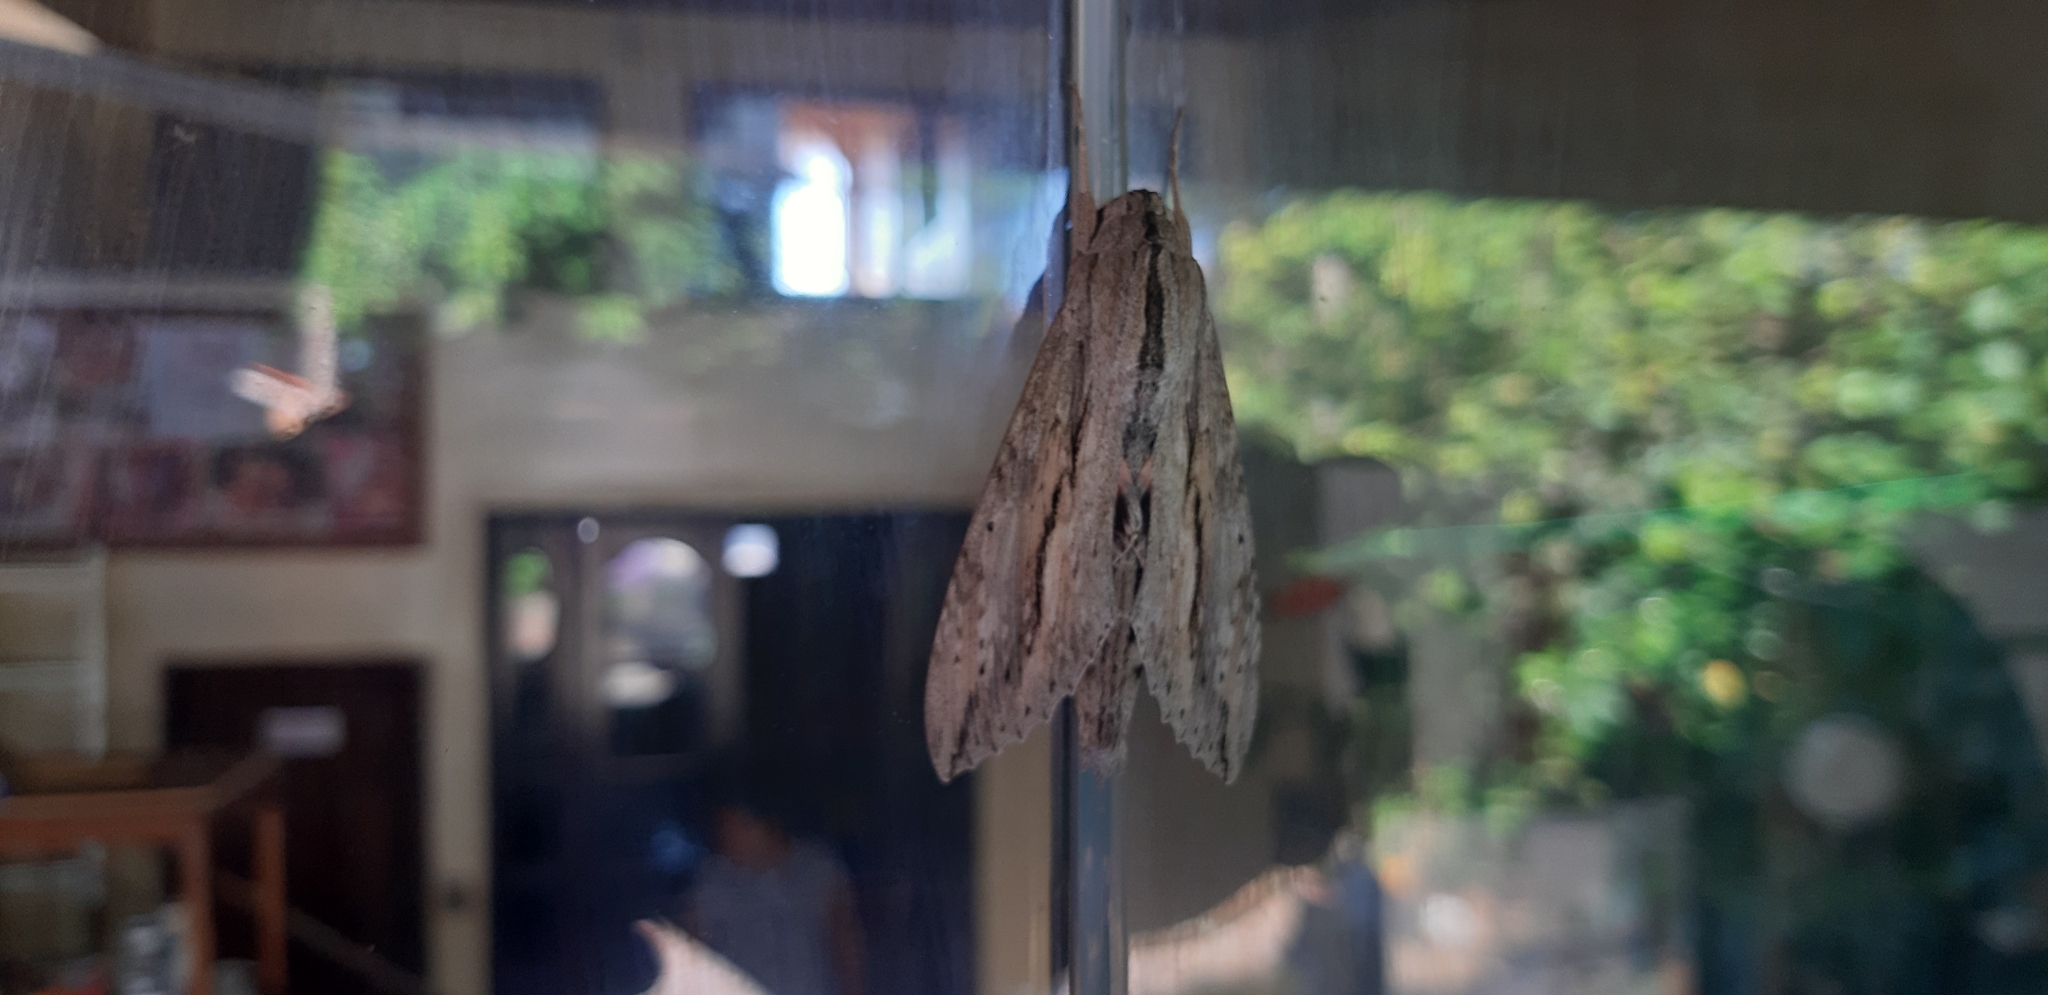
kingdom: Animalia
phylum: Arthropoda
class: Insecta
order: Lepidoptera
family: Sphingidae
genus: Erinnyis
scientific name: Erinnyis ello
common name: Ello sphinx
